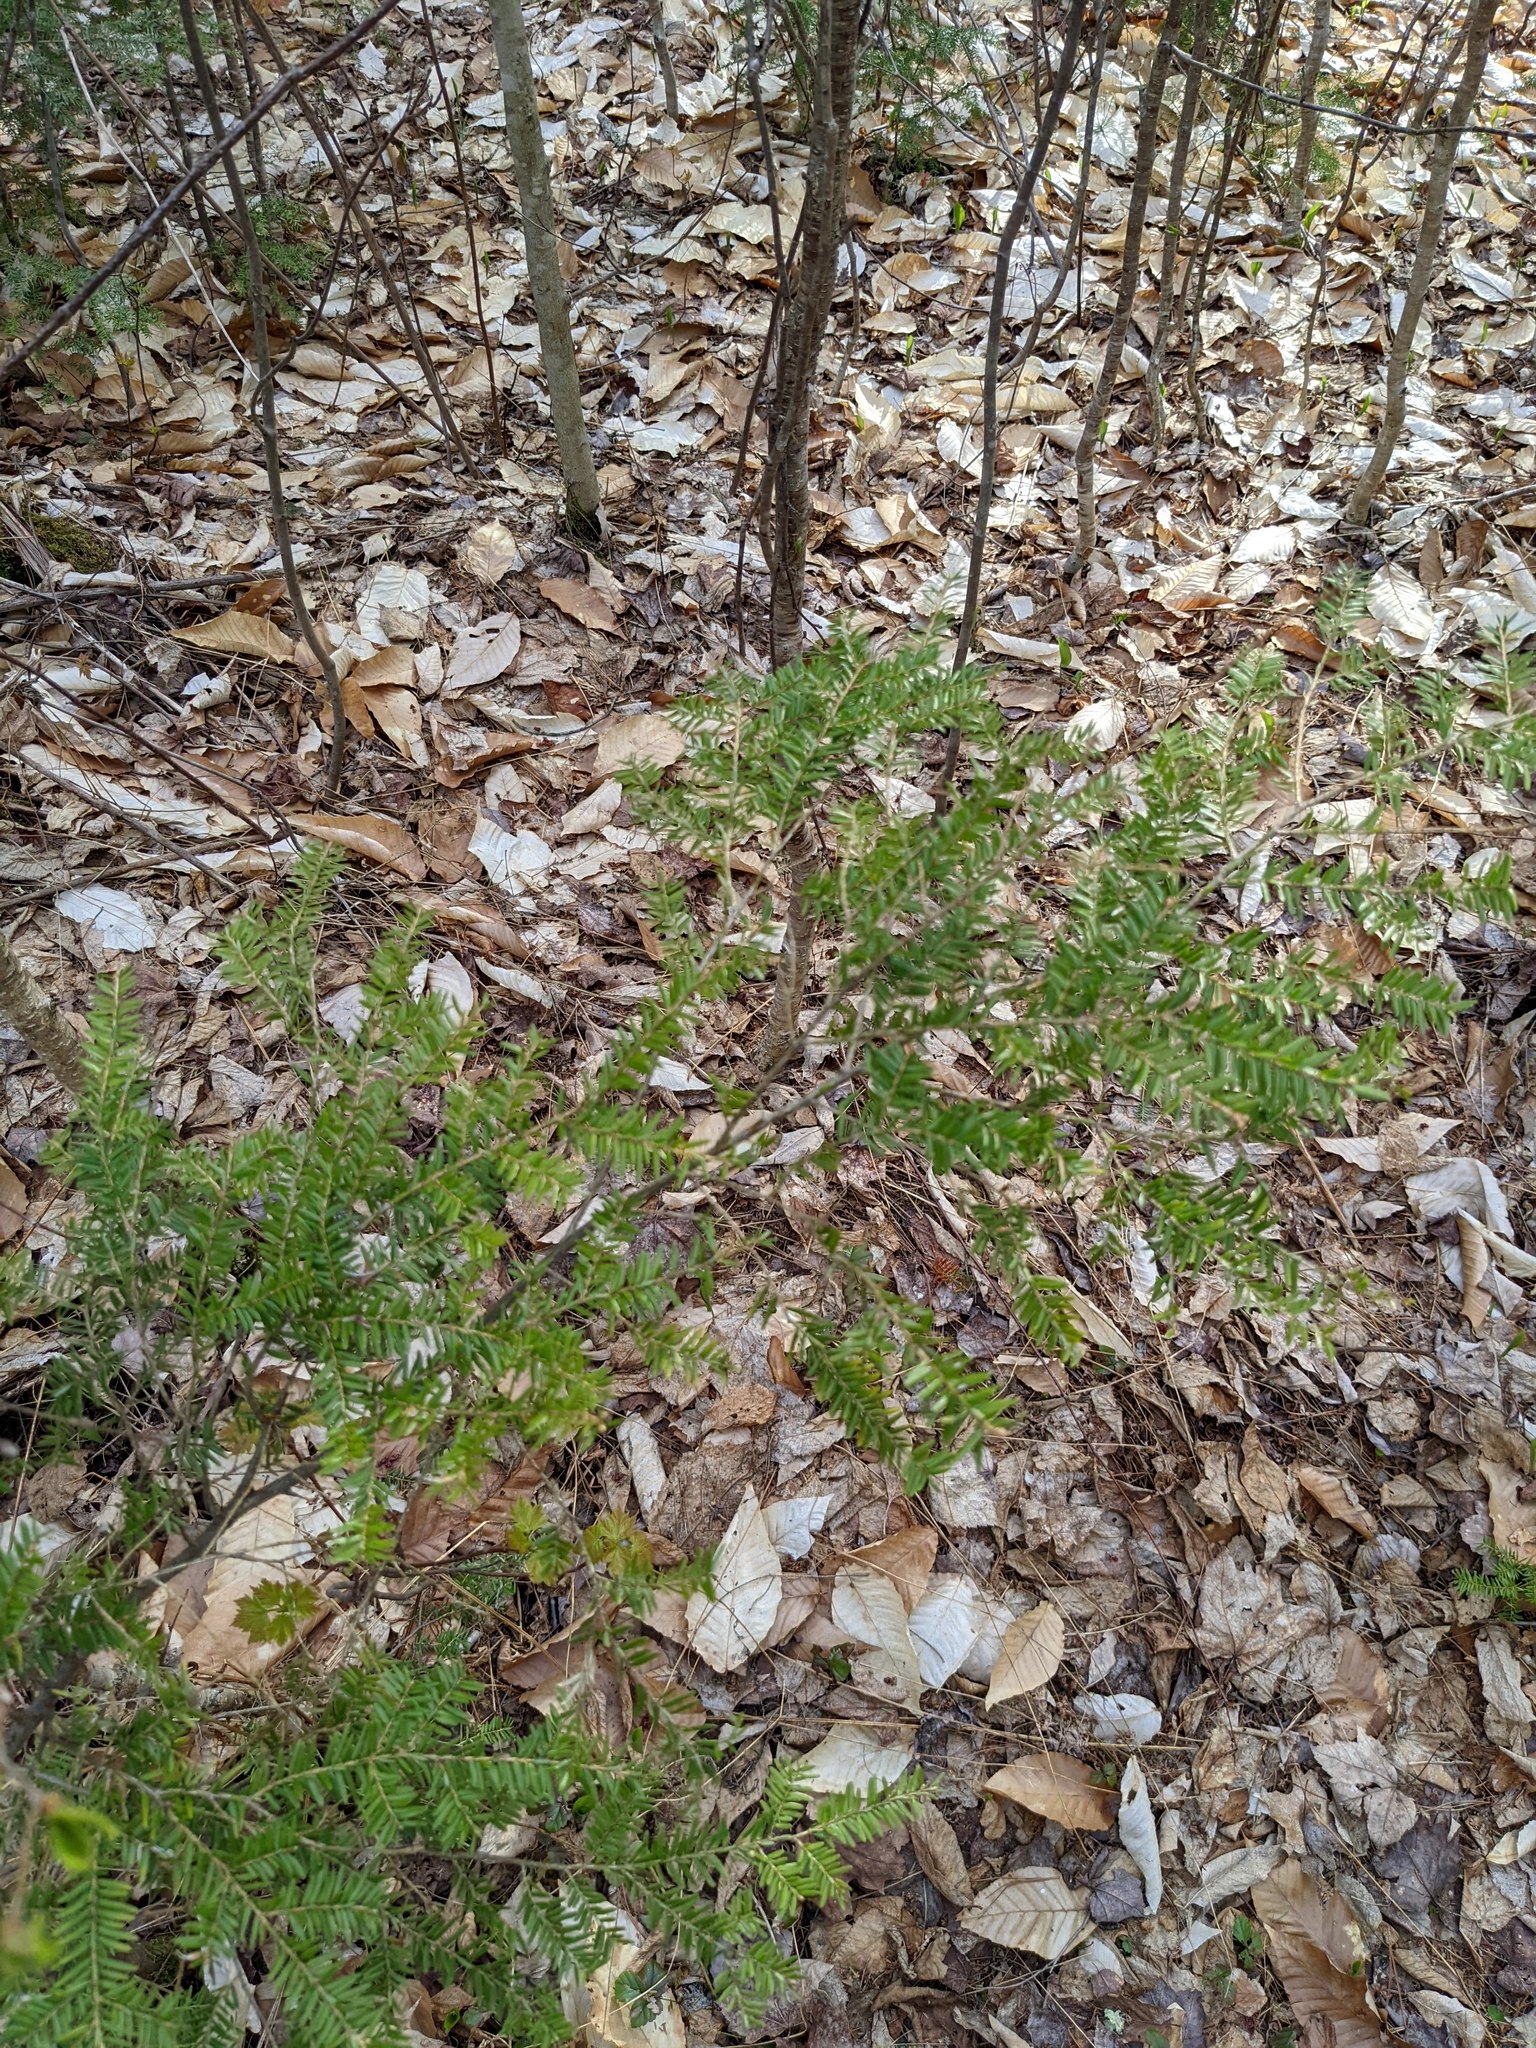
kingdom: Plantae
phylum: Tracheophyta
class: Pinopsida
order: Pinales
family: Pinaceae
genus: Tsuga
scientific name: Tsuga canadensis
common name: Eastern hemlock
